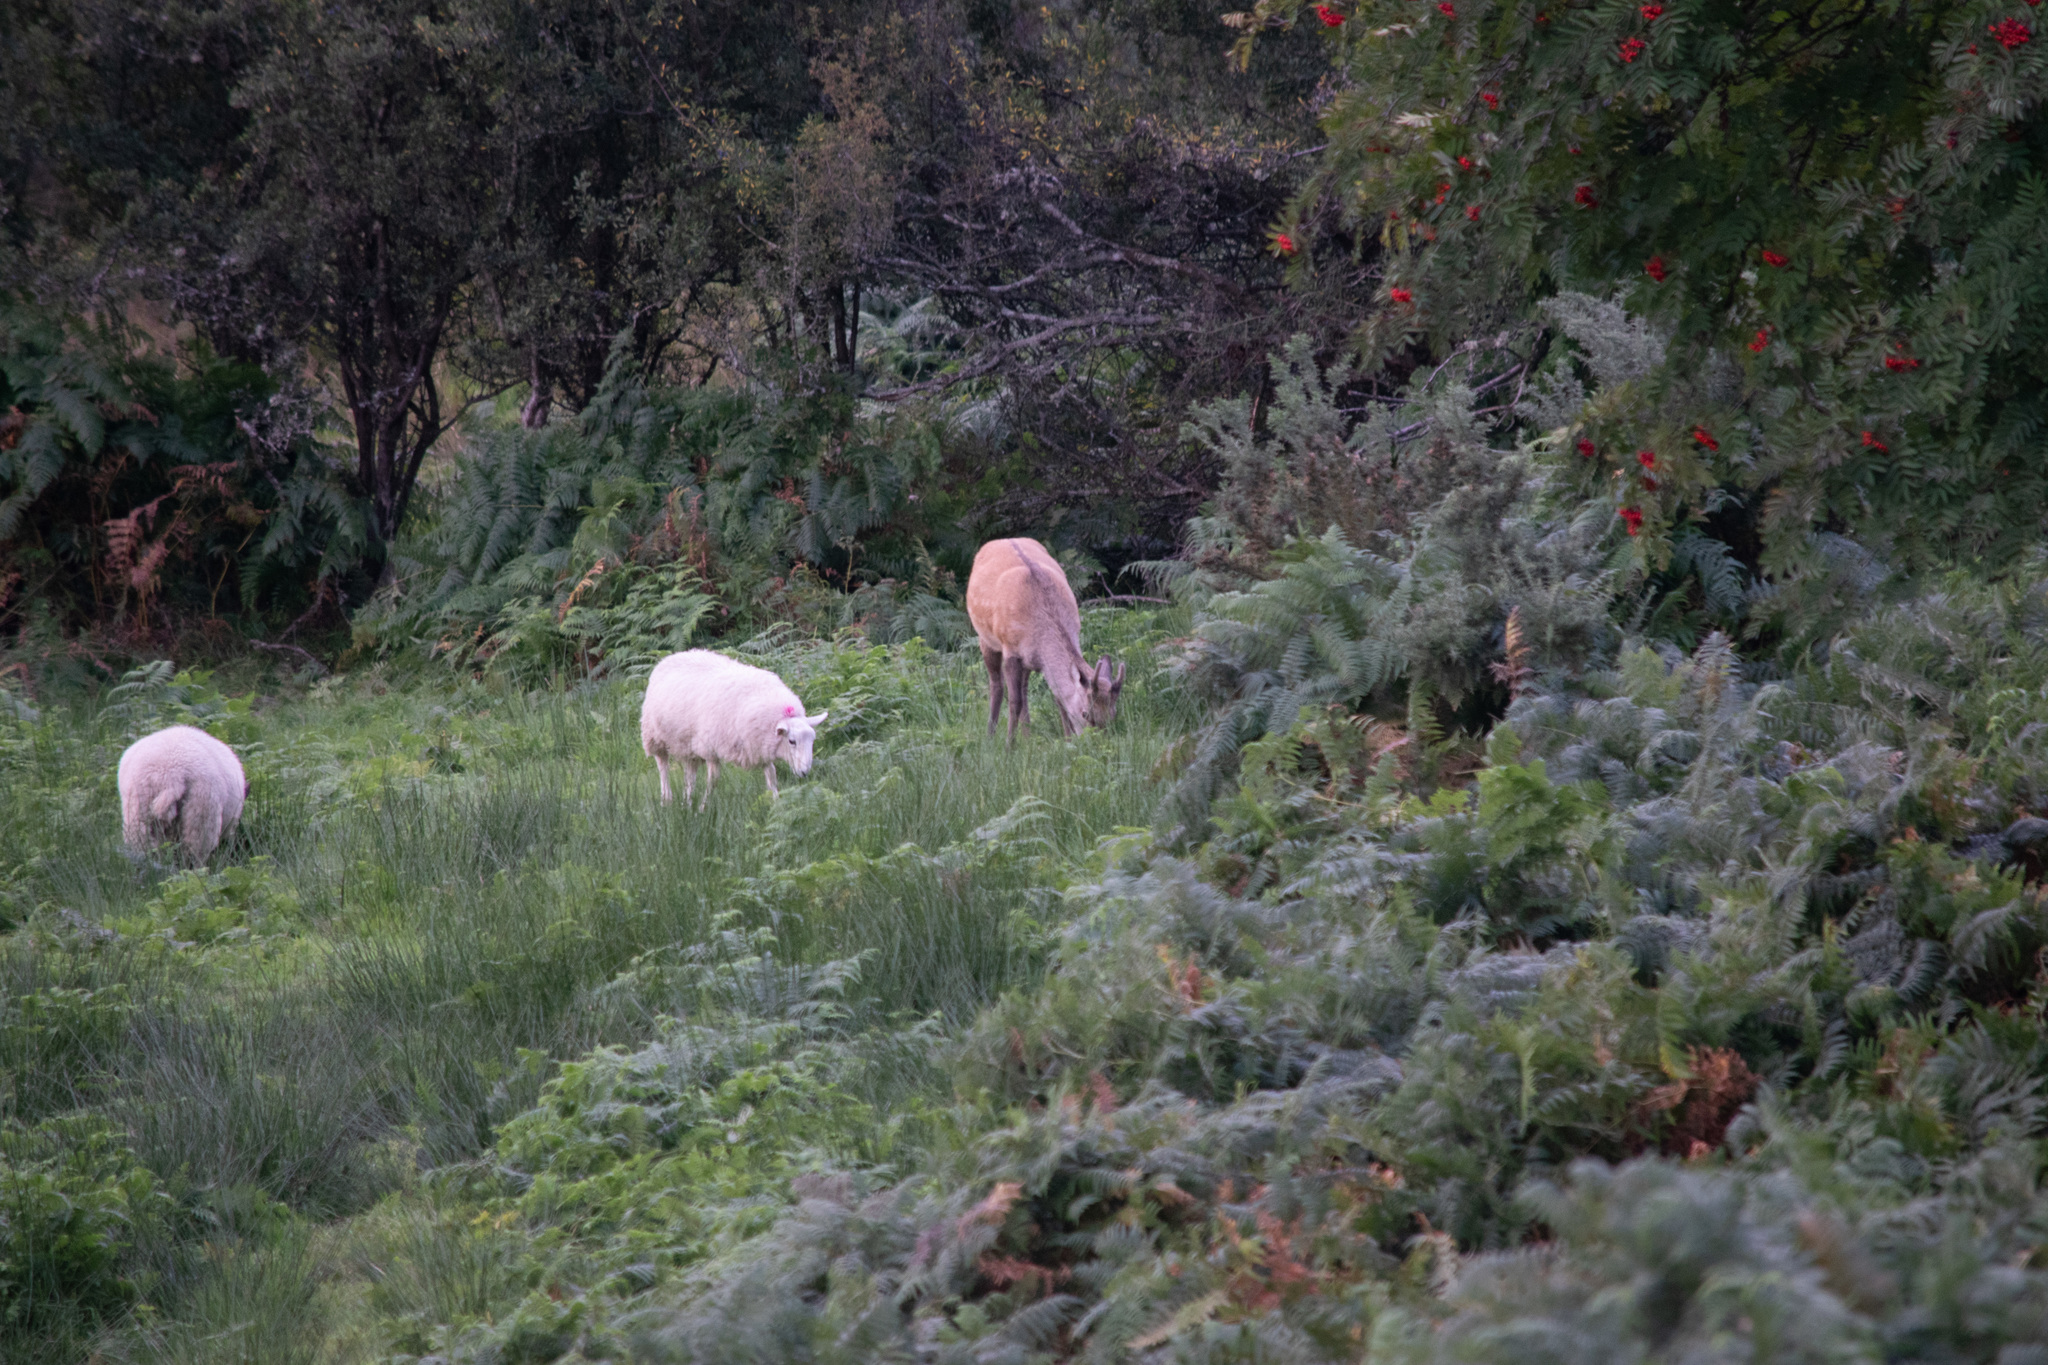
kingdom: Animalia
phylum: Chordata
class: Mammalia
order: Artiodactyla
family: Cervidae
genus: Cervus
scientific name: Cervus nippon
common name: Sika deer
